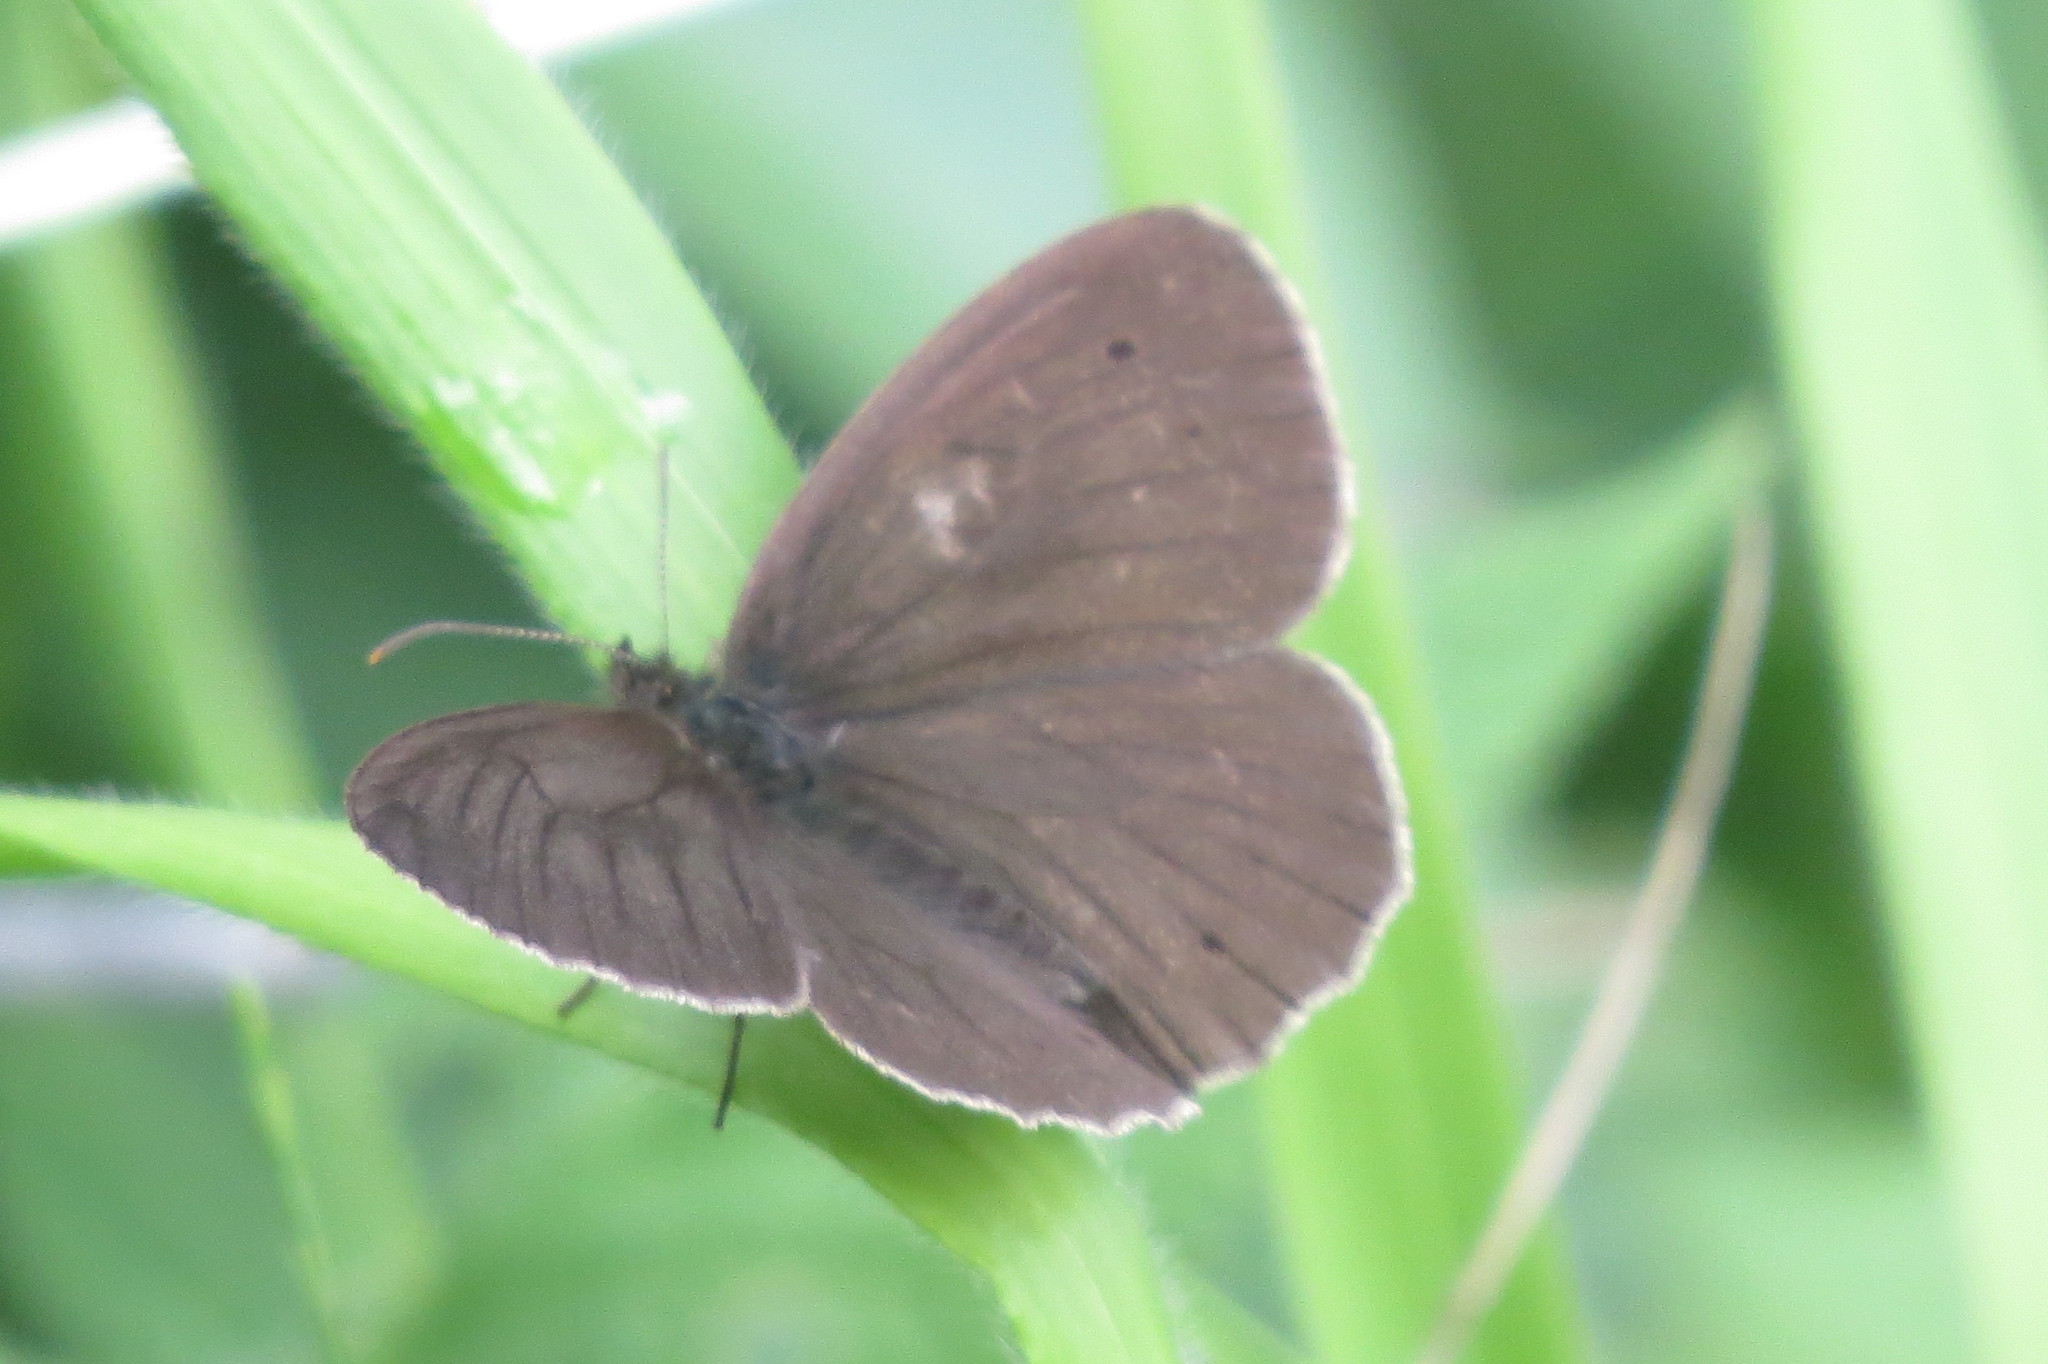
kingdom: Animalia
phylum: Arthropoda
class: Insecta
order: Lepidoptera
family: Nymphalidae
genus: Aphantopus
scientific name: Aphantopus hyperantus
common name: Ringlet
